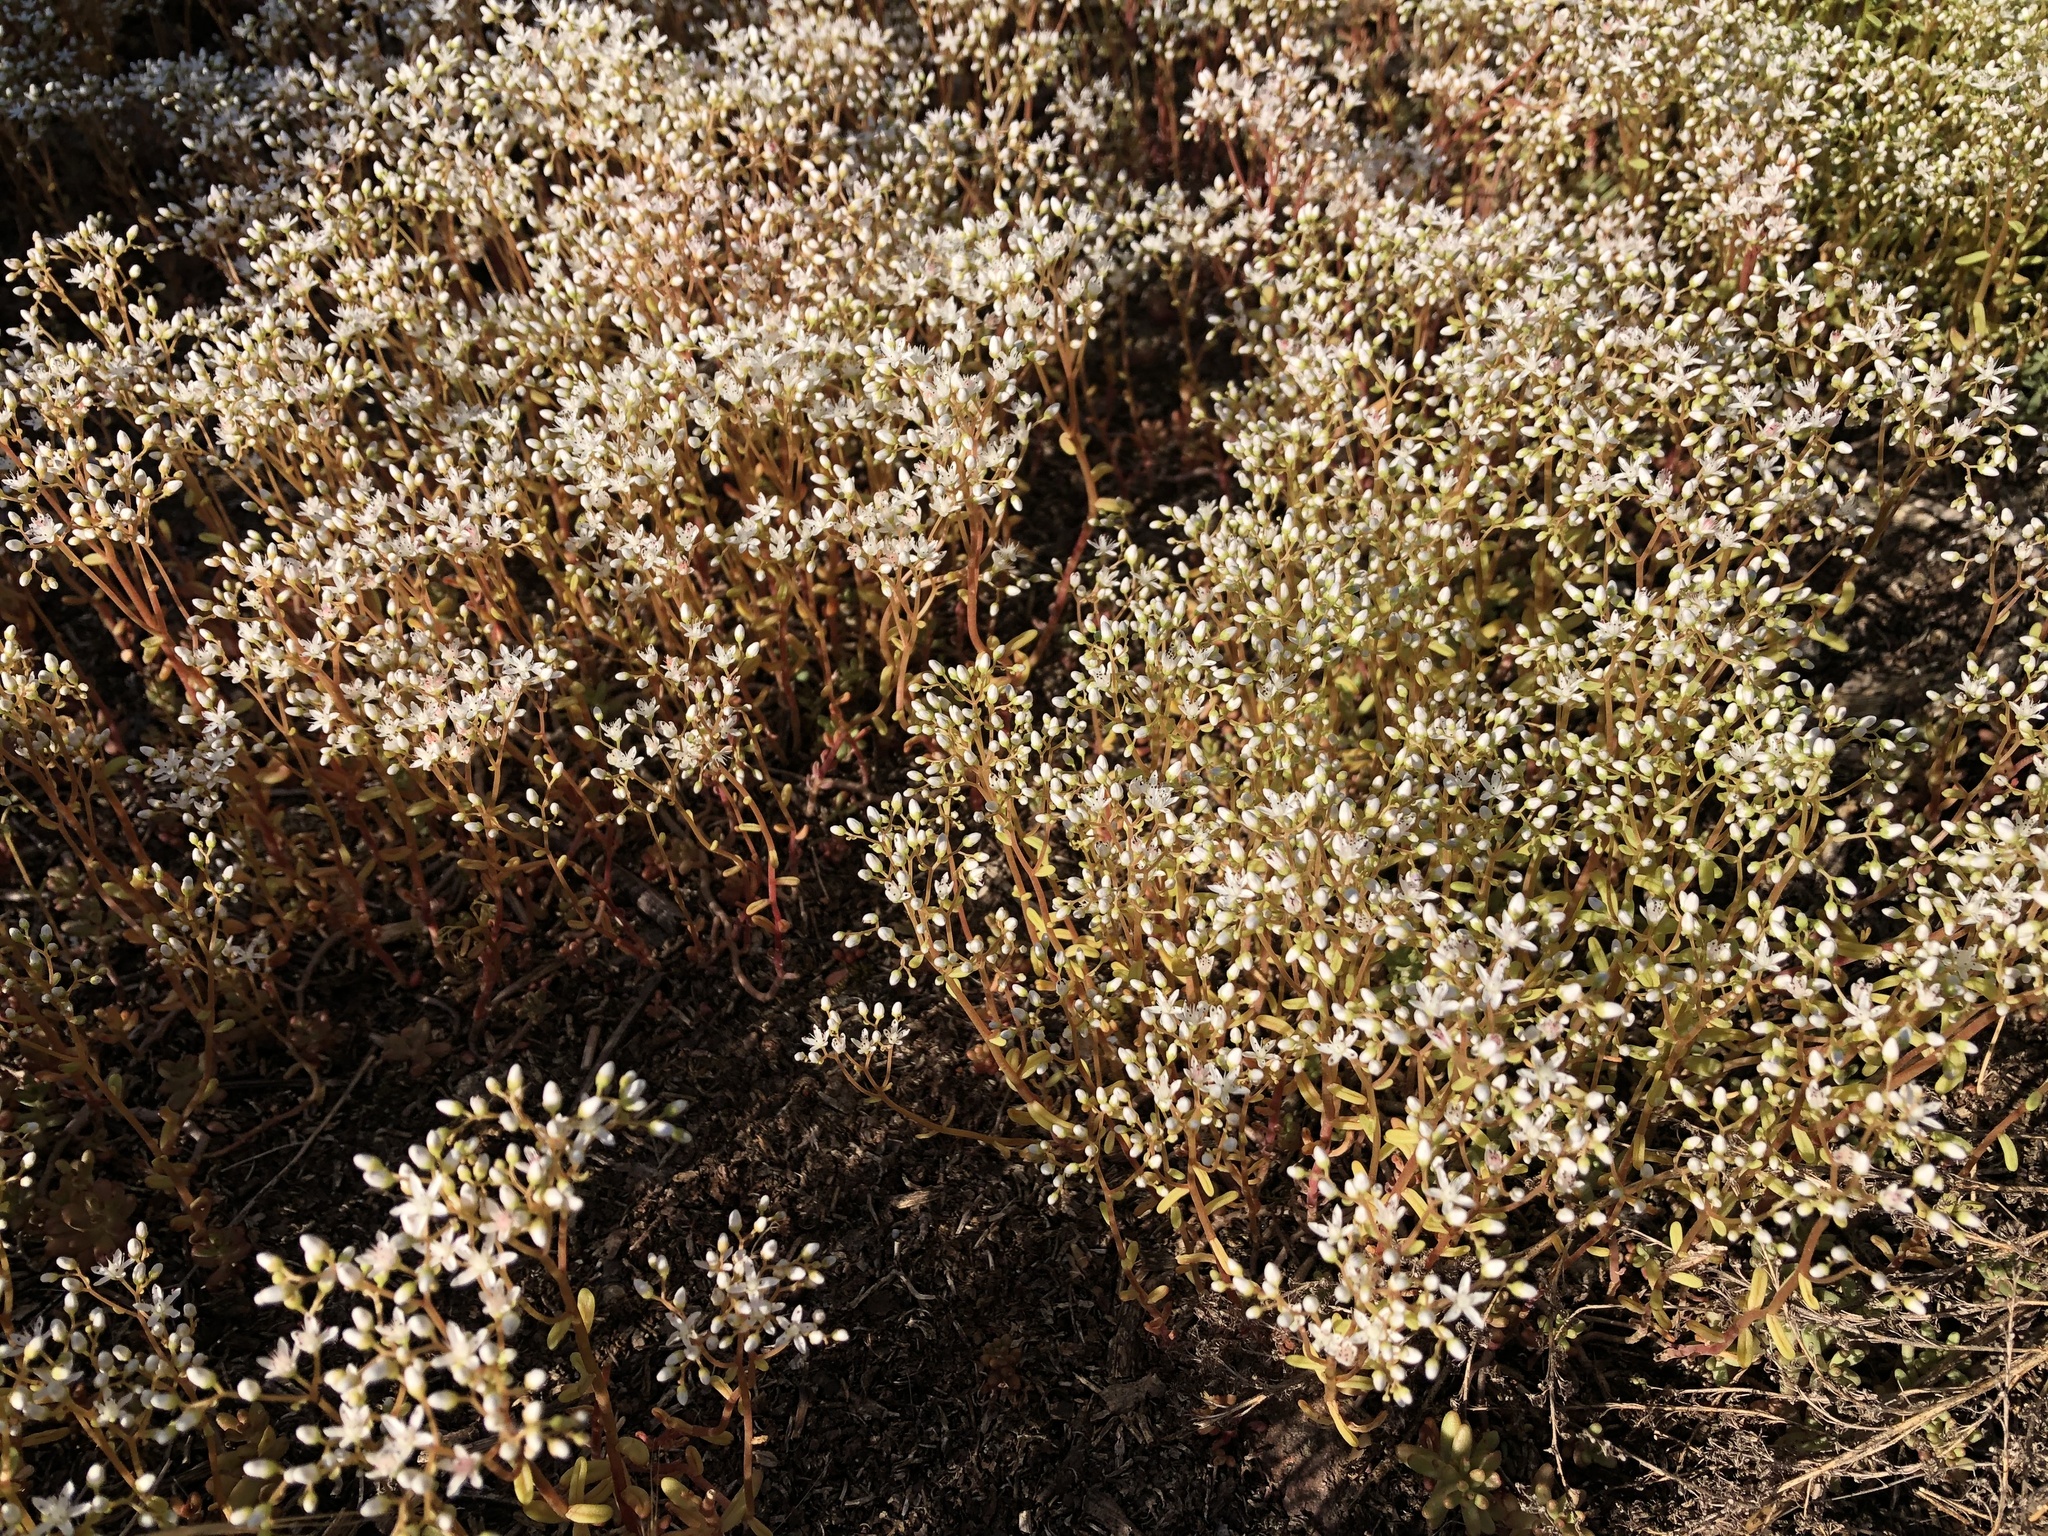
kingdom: Plantae
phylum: Tracheophyta
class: Magnoliopsida
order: Saxifragales
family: Crassulaceae
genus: Sedum
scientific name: Sedum album
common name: White stonecrop
